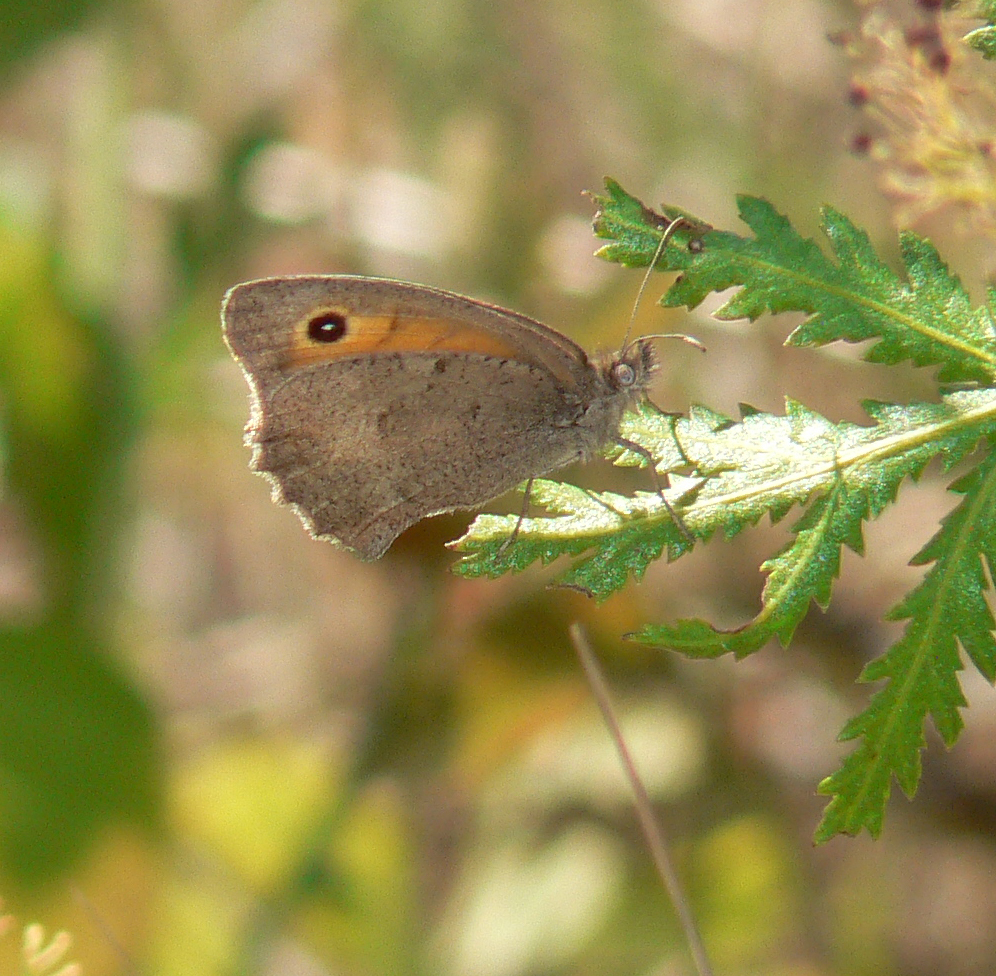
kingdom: Animalia
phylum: Arthropoda
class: Insecta
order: Lepidoptera
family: Nymphalidae
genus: Hyponephele
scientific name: Hyponephele lycaon
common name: Dusky meadow brown
